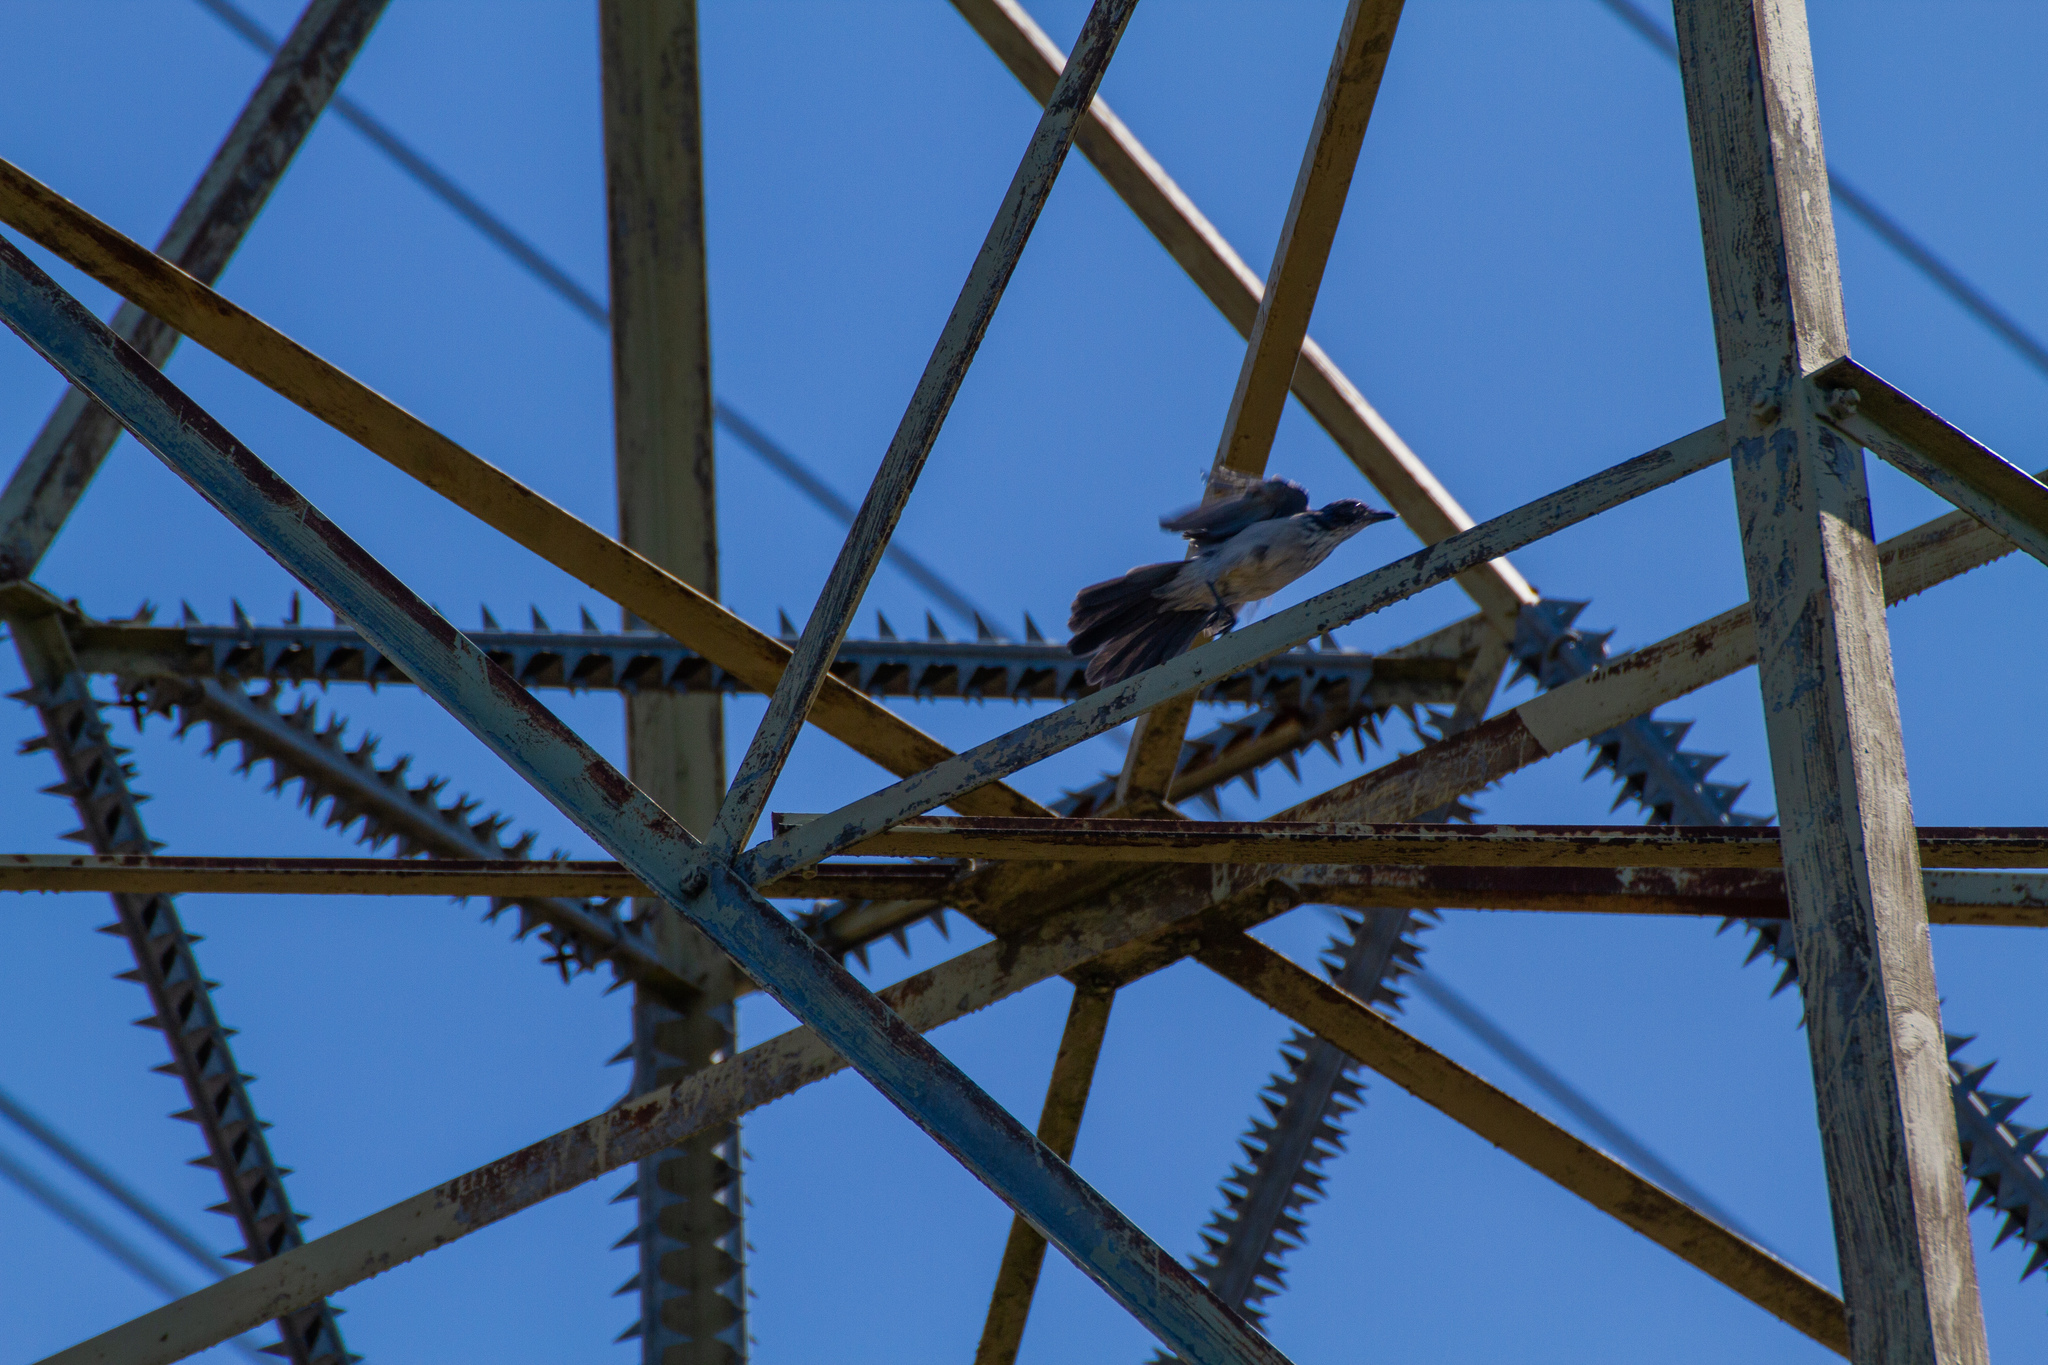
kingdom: Animalia
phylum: Chordata
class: Aves
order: Passeriformes
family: Corvidae
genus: Aphelocoma
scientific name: Aphelocoma californica
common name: California scrub-jay
